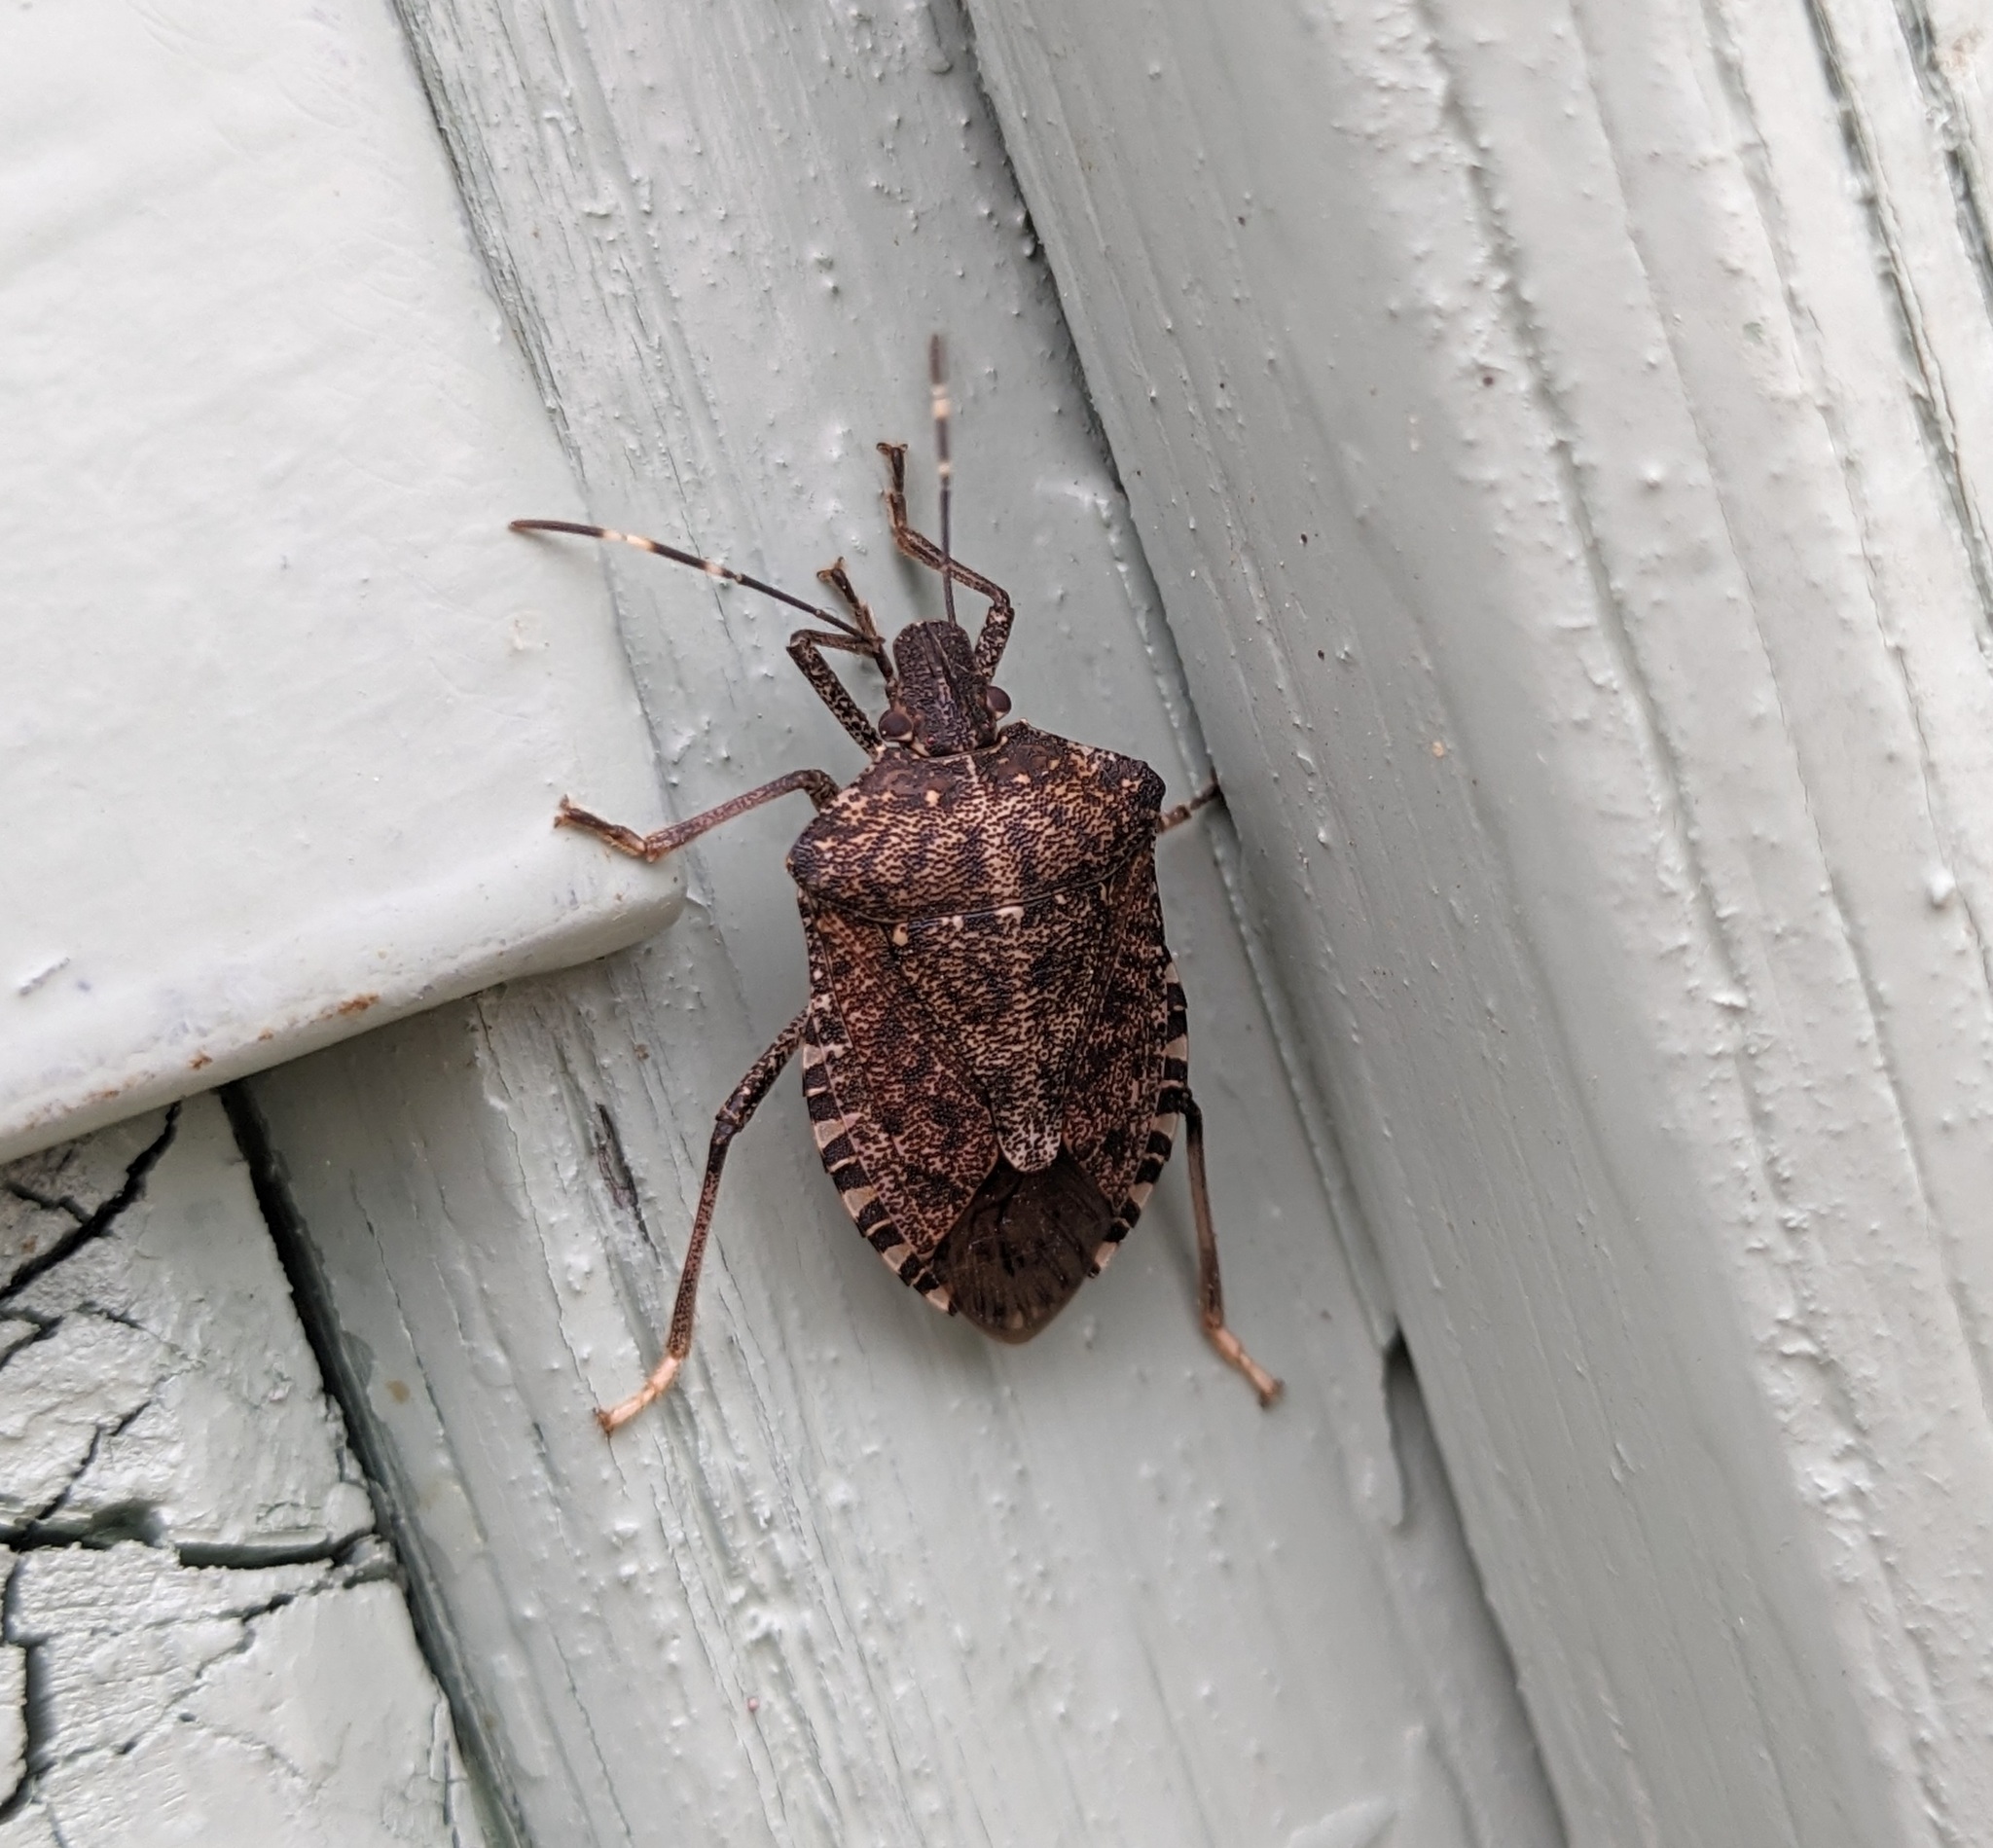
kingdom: Animalia
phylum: Arthropoda
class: Insecta
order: Hemiptera
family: Pentatomidae
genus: Halyomorpha
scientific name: Halyomorpha halys
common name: Brown marmorated stink bug
